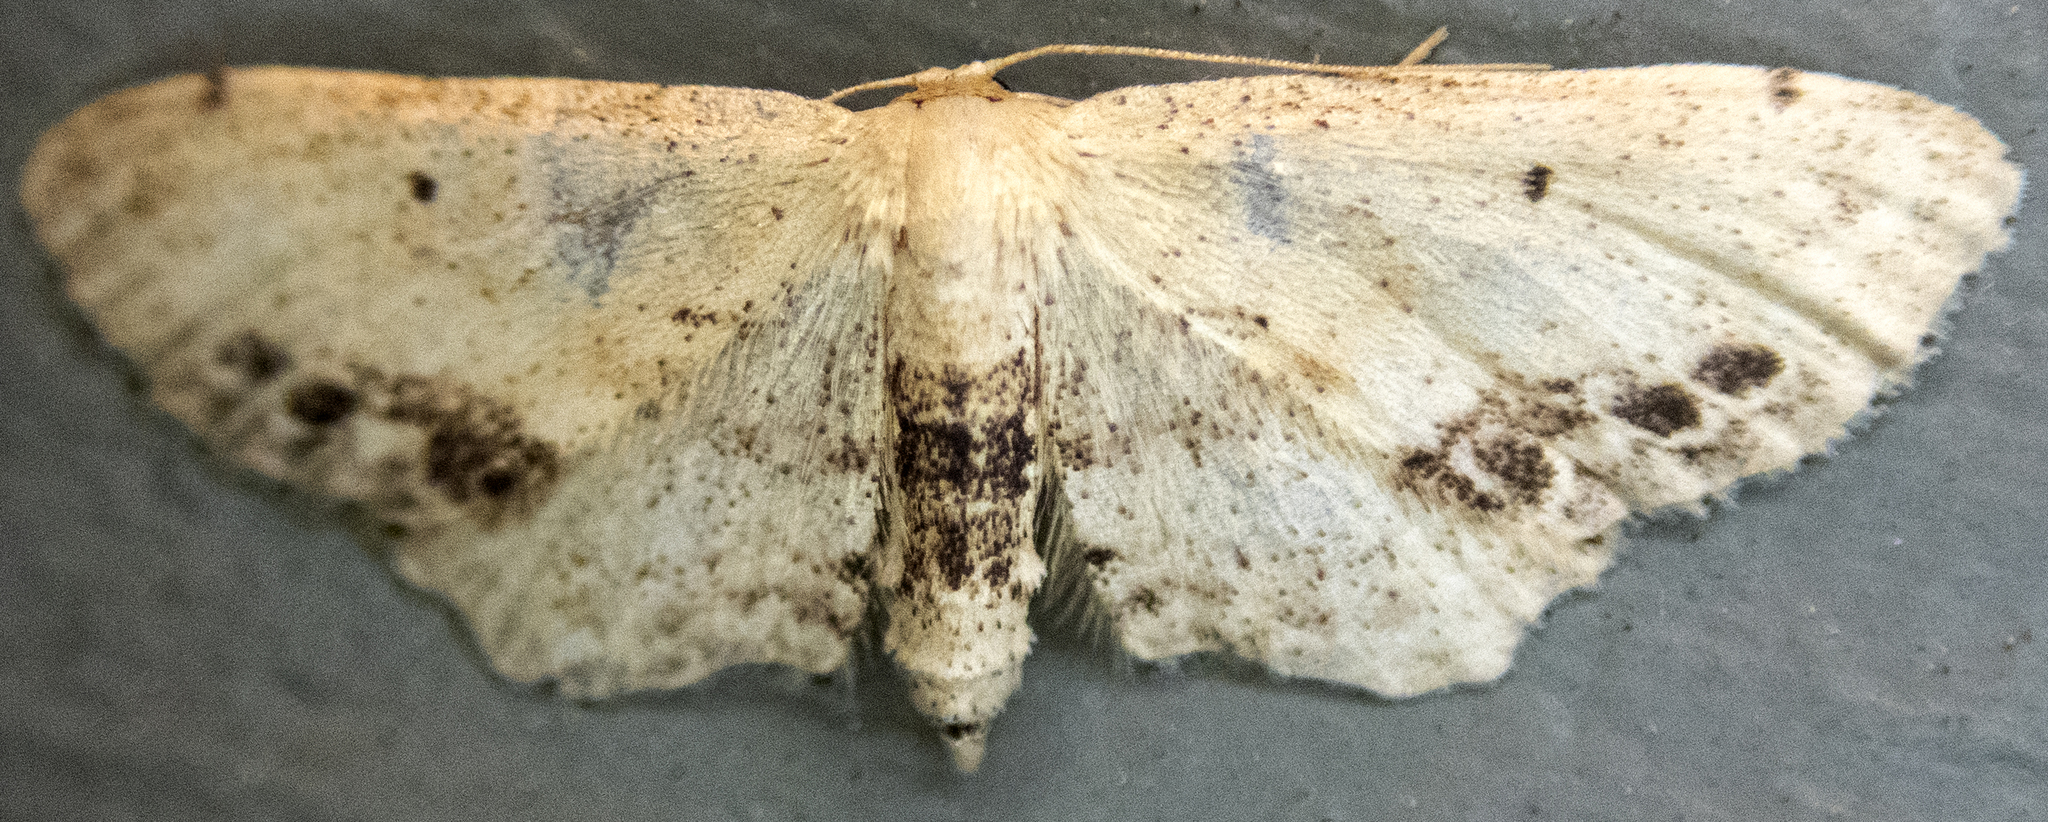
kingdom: Animalia
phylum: Arthropoda
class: Insecta
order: Lepidoptera
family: Geometridae
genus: Idaea
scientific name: Idaea dimidiata
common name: Single-dotted wave
